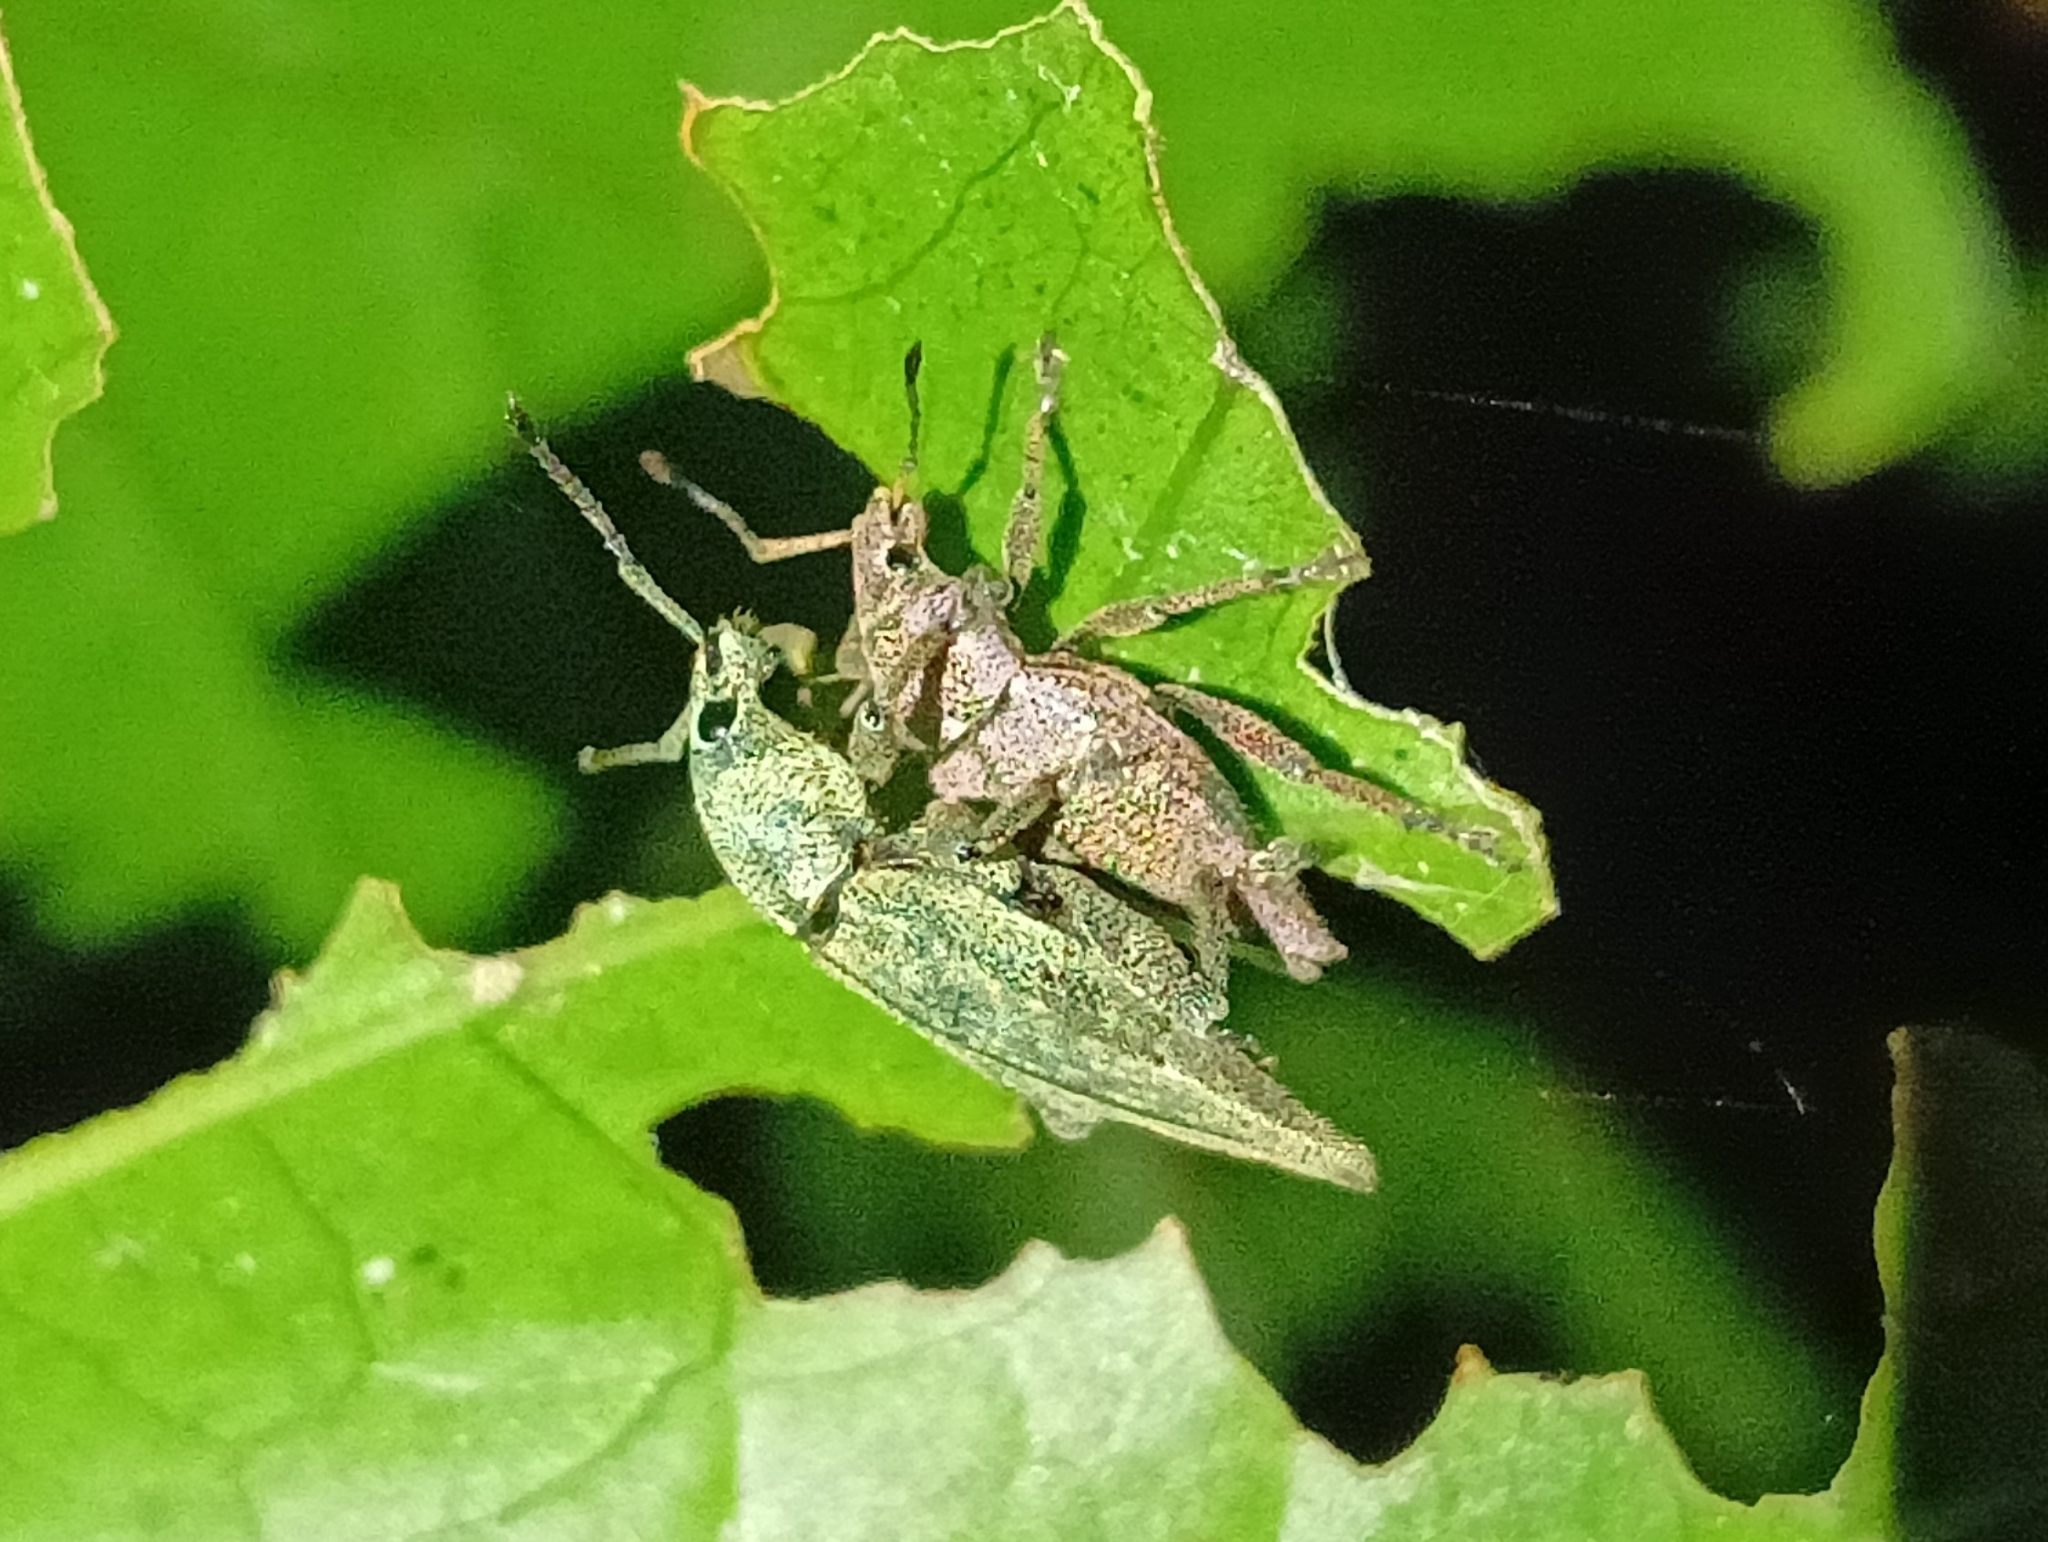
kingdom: Animalia
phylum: Arthropoda
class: Insecta
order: Coleoptera
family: Curculionidae
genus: Elytrurus
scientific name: Elytrurus caudatus
